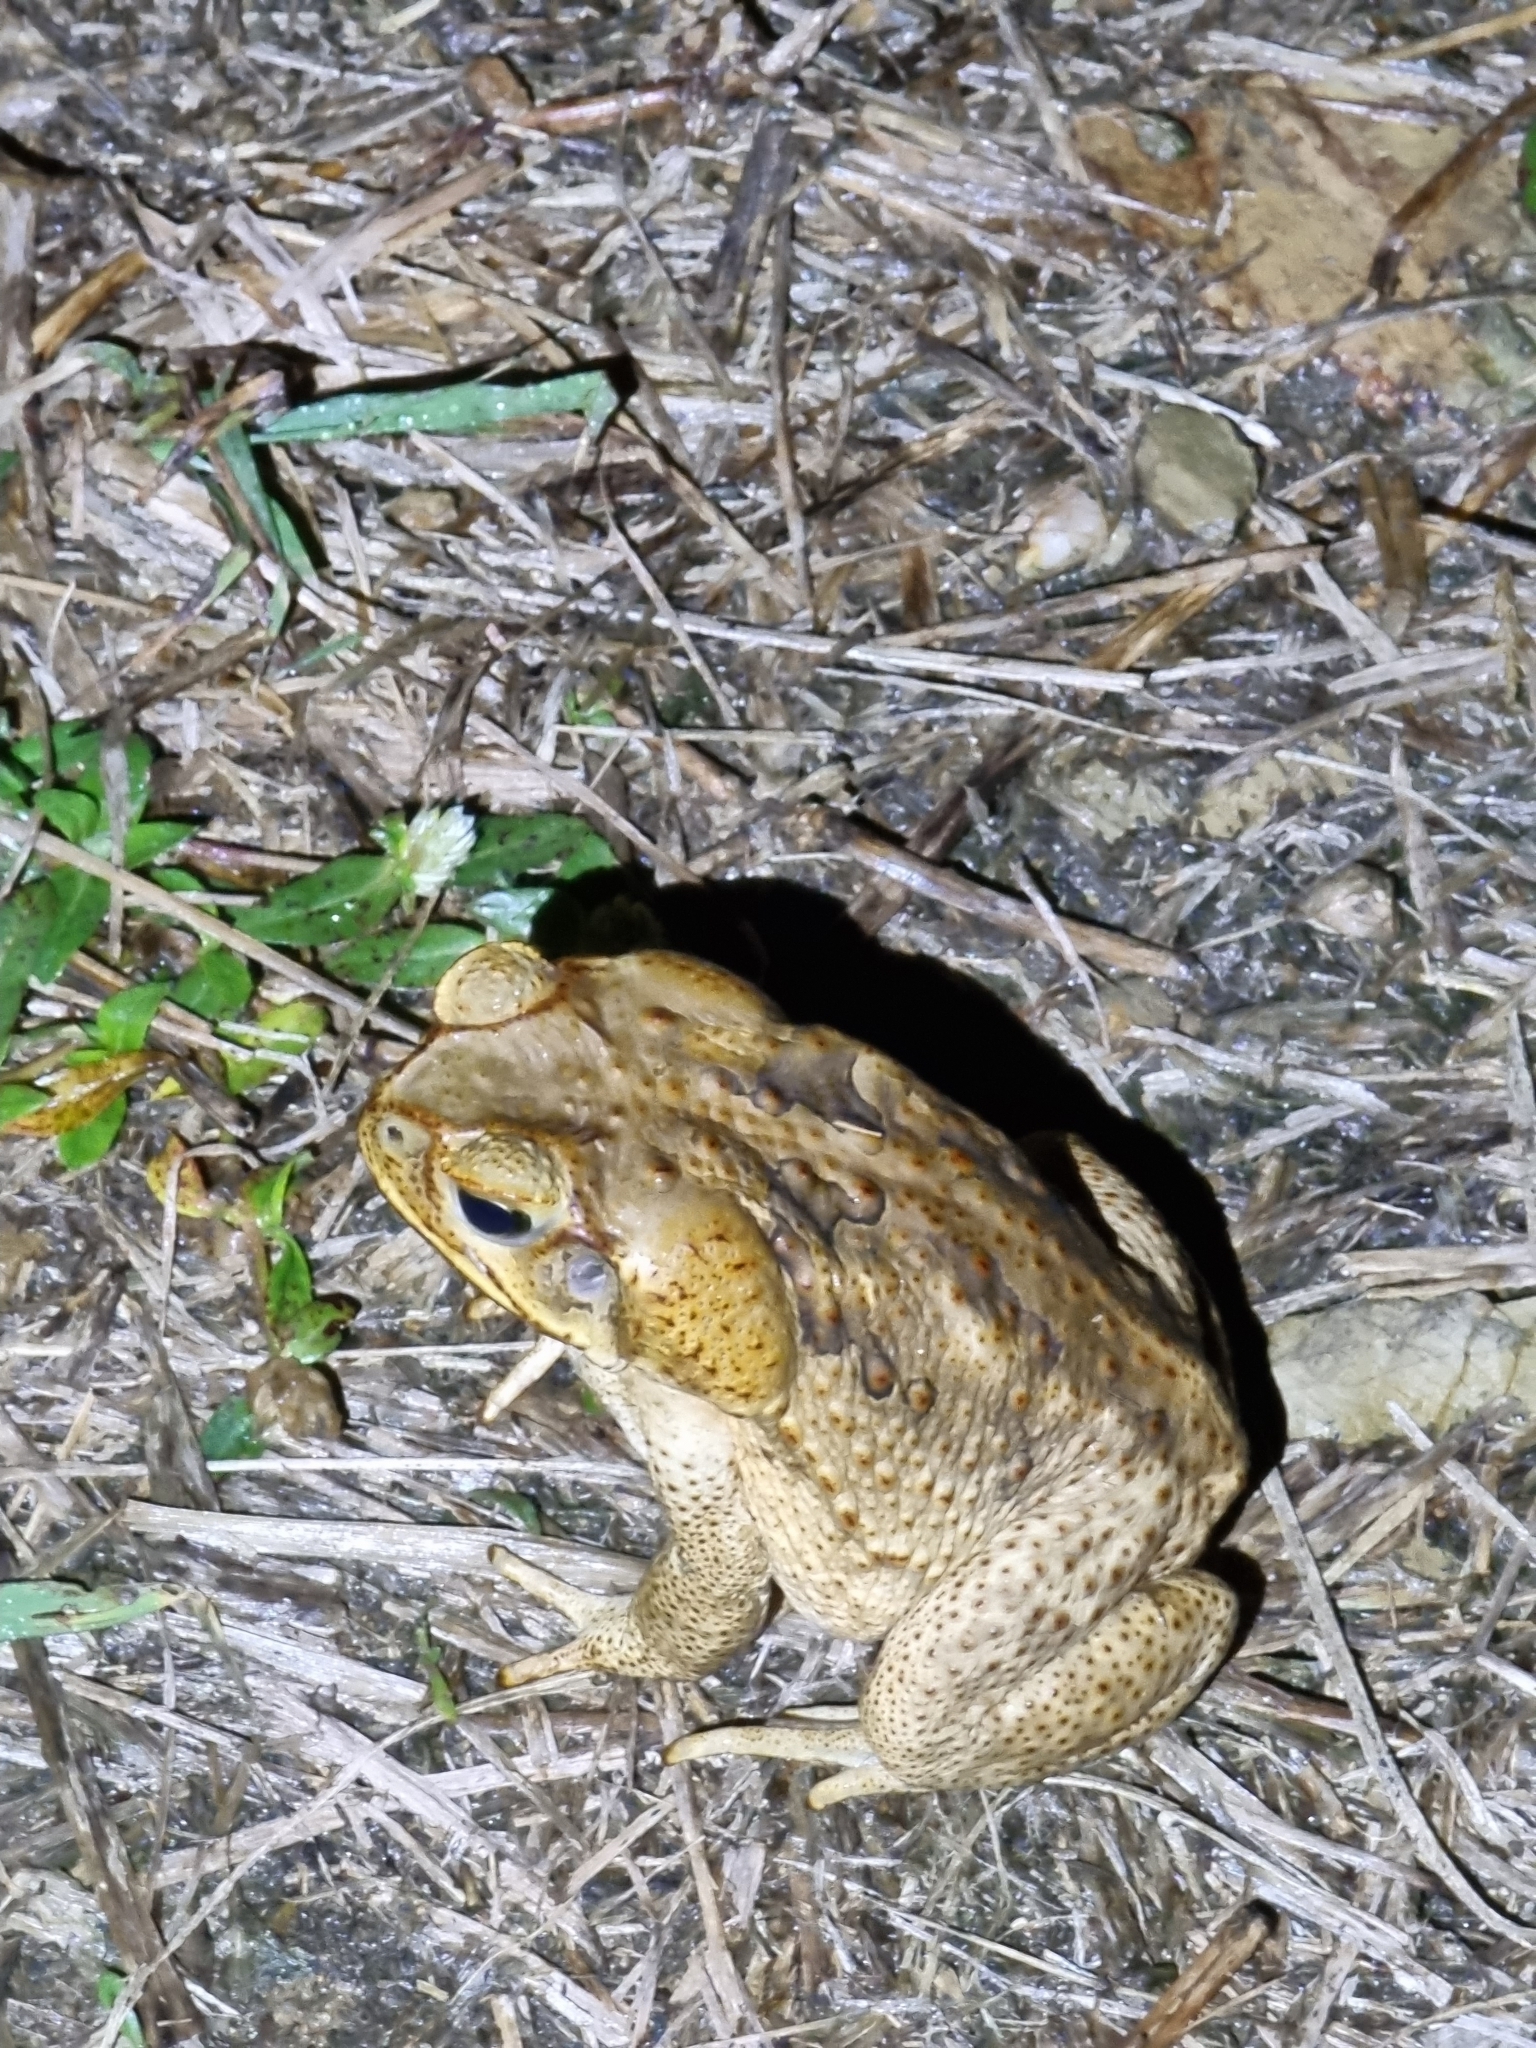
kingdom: Animalia
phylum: Chordata
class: Amphibia
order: Anura
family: Bufonidae
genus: Rhinella
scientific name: Rhinella marina
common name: Cane toad
